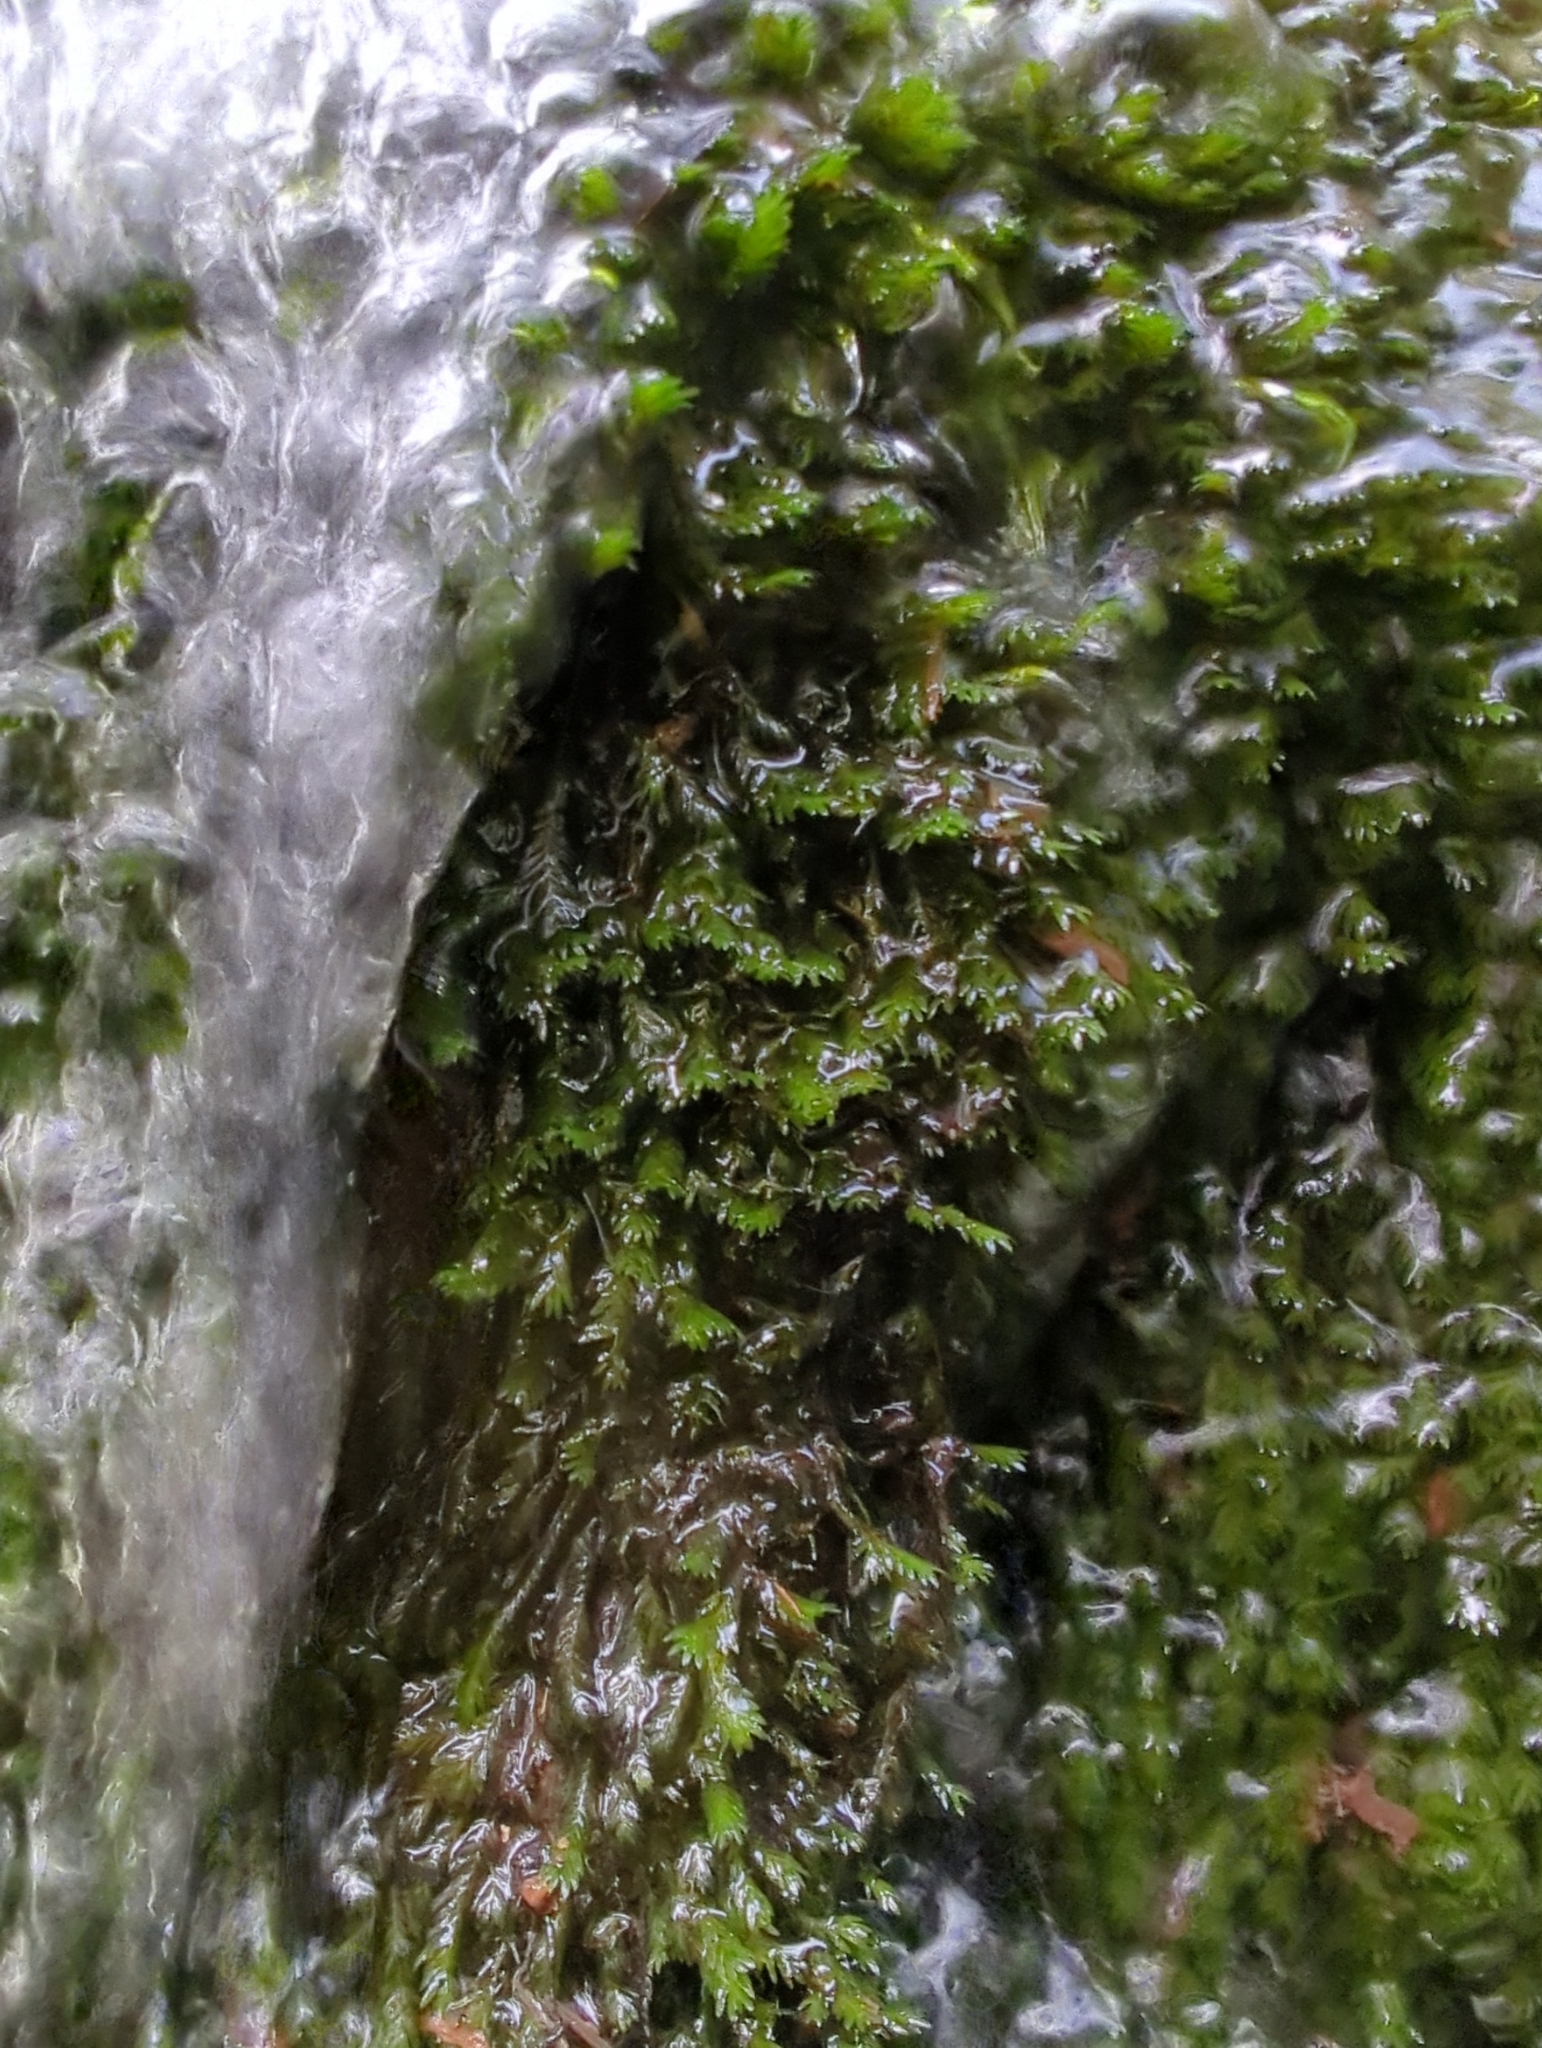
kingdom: Plantae
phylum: Bryophyta
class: Bryopsida
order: Dicranales
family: Fissidentaceae
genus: Fissidens
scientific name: Fissidens rigidulus
